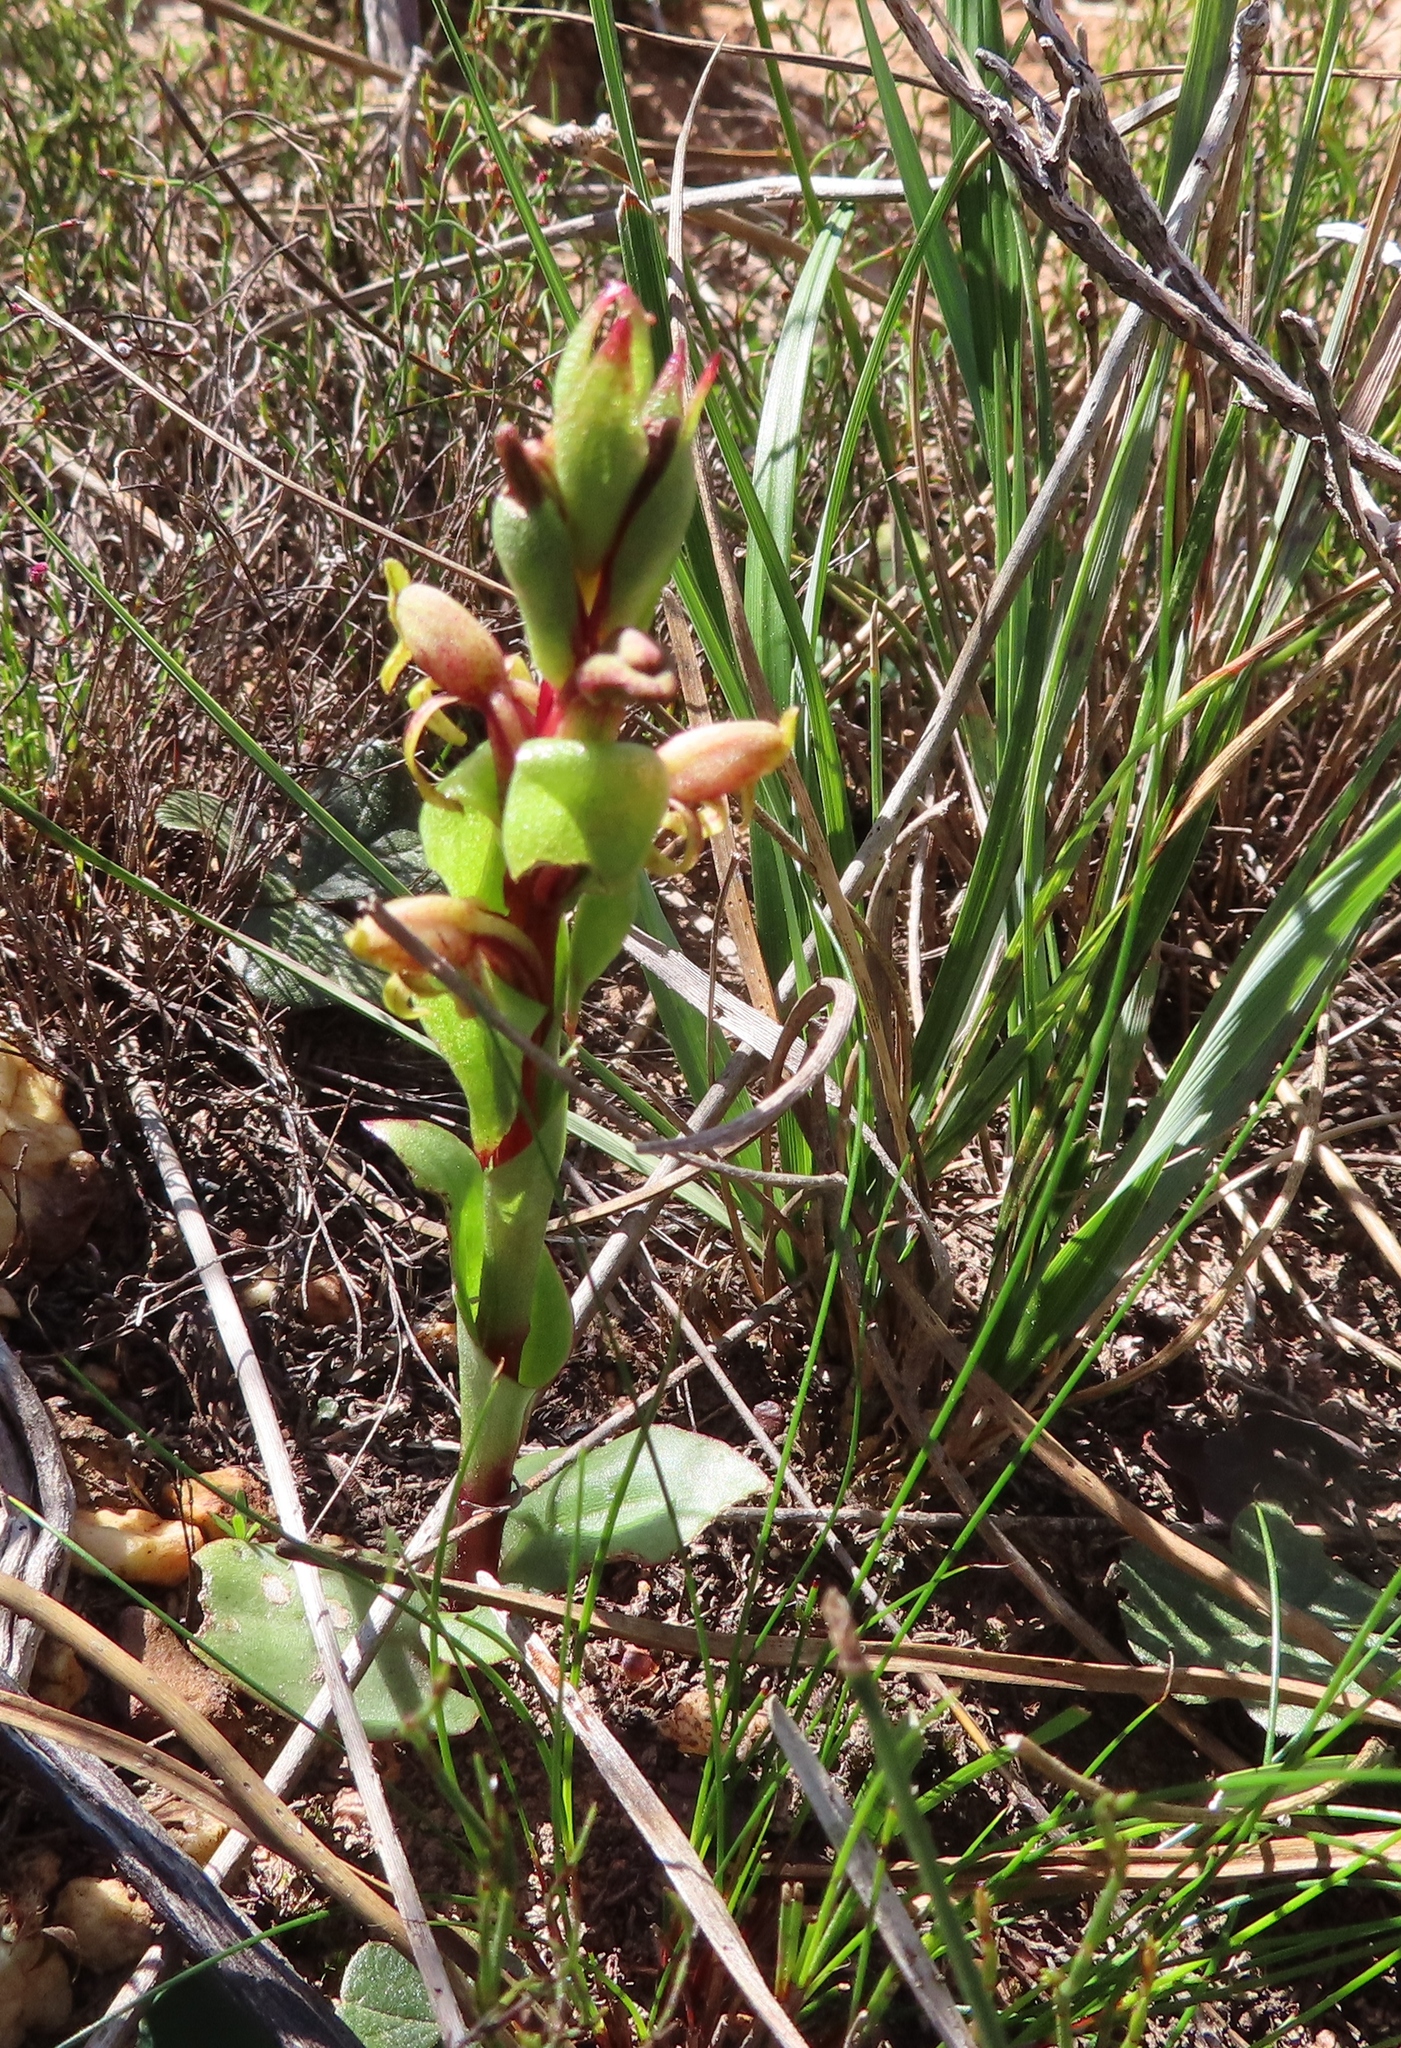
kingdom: Plantae
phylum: Tracheophyta
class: Liliopsida
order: Asparagales
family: Orchidaceae
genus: Satyrium
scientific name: Satyrium lupulinum
